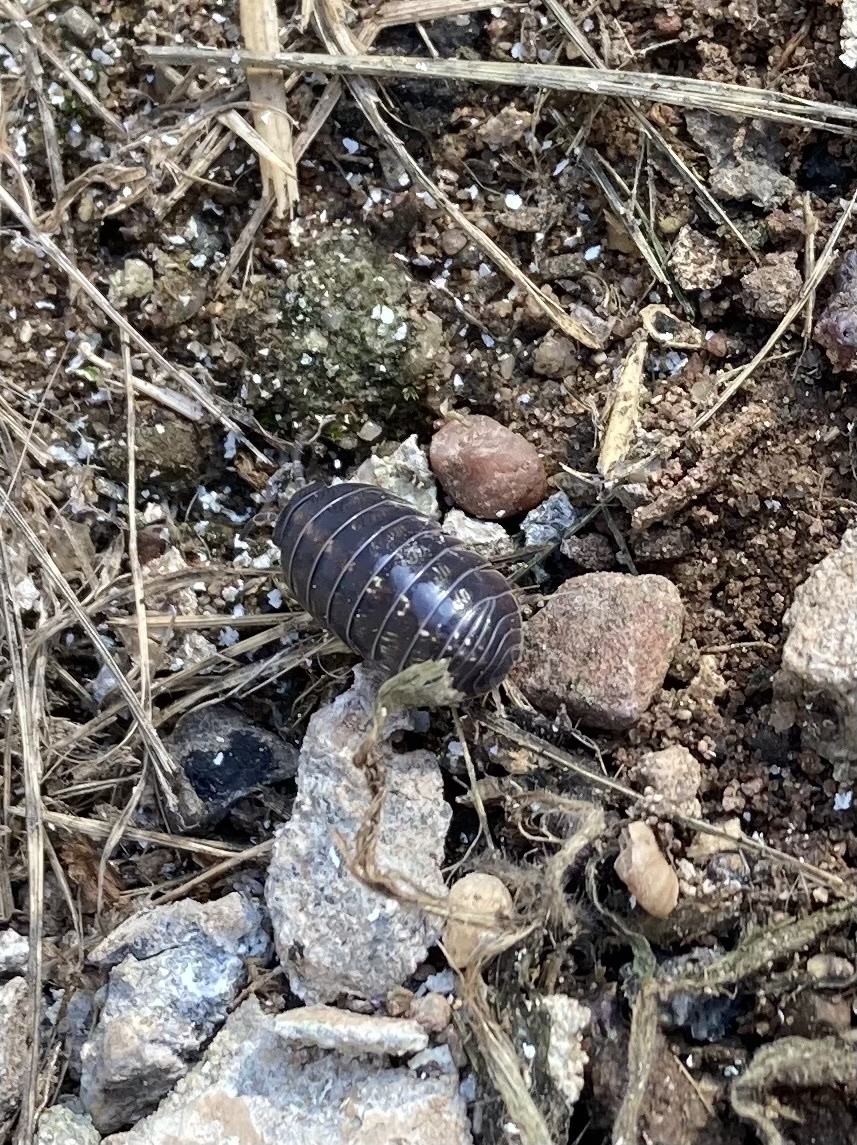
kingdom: Animalia
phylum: Arthropoda
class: Malacostraca
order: Isopoda
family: Armadillidiidae
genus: Armadillidium
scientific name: Armadillidium vulgare
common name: Common pill woodlouse
